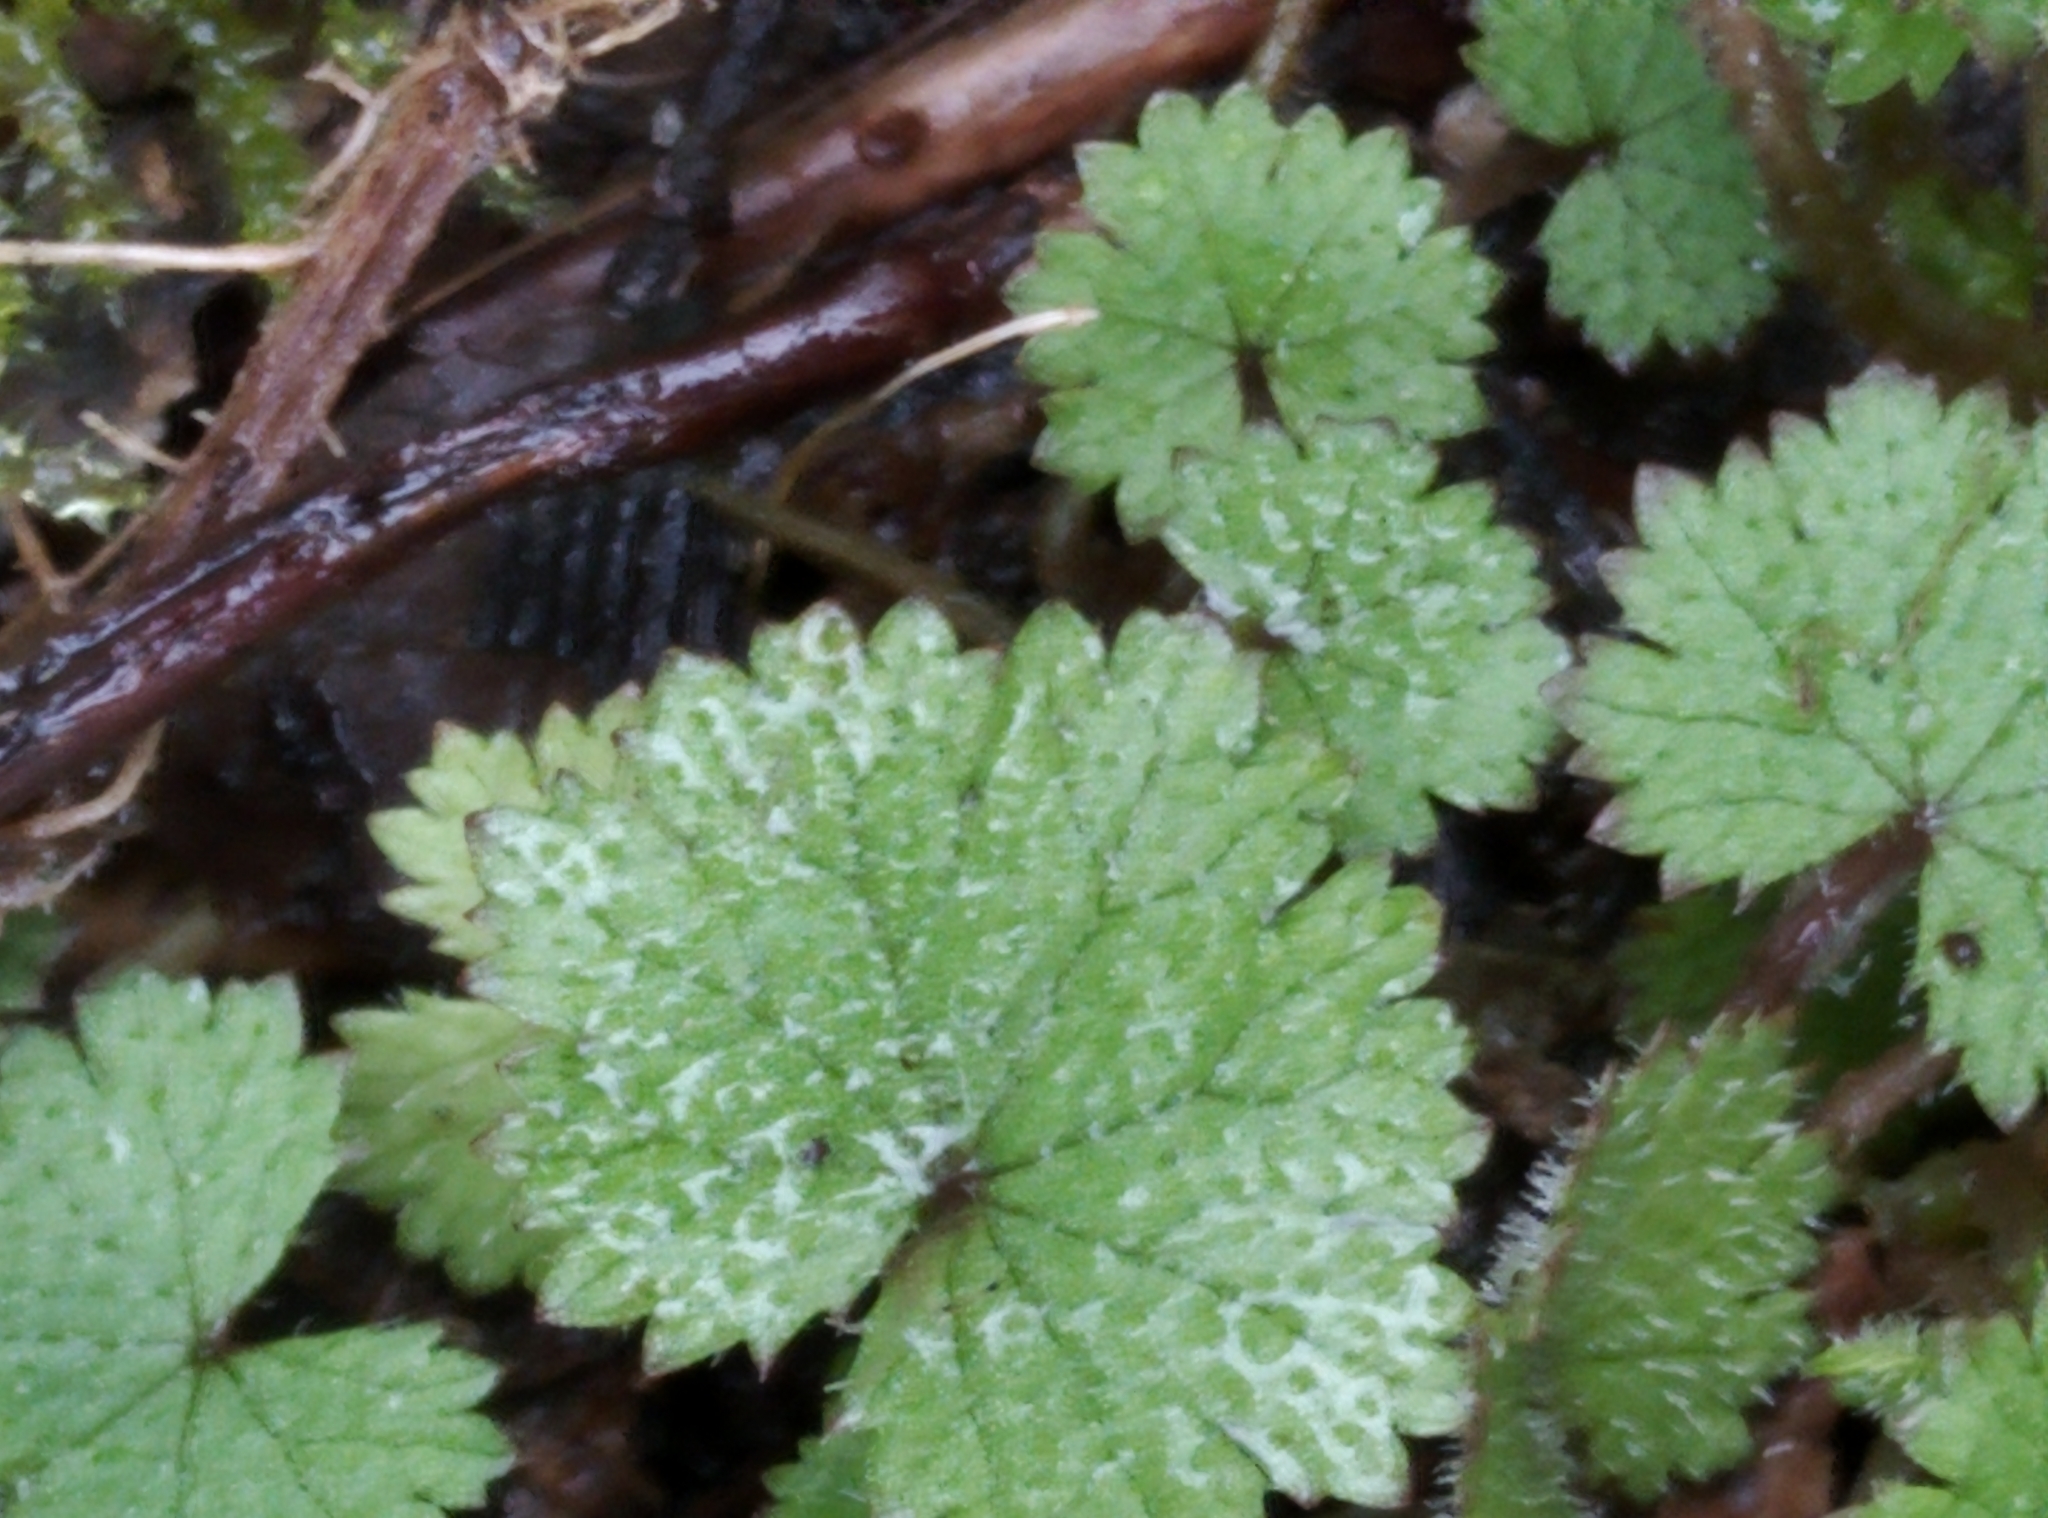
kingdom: Plantae
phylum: Tracheophyta
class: Magnoliopsida
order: Apiales
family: Araliaceae
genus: Hydrocotyle
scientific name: Hydrocotyle moschata
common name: Hairy pennywort
